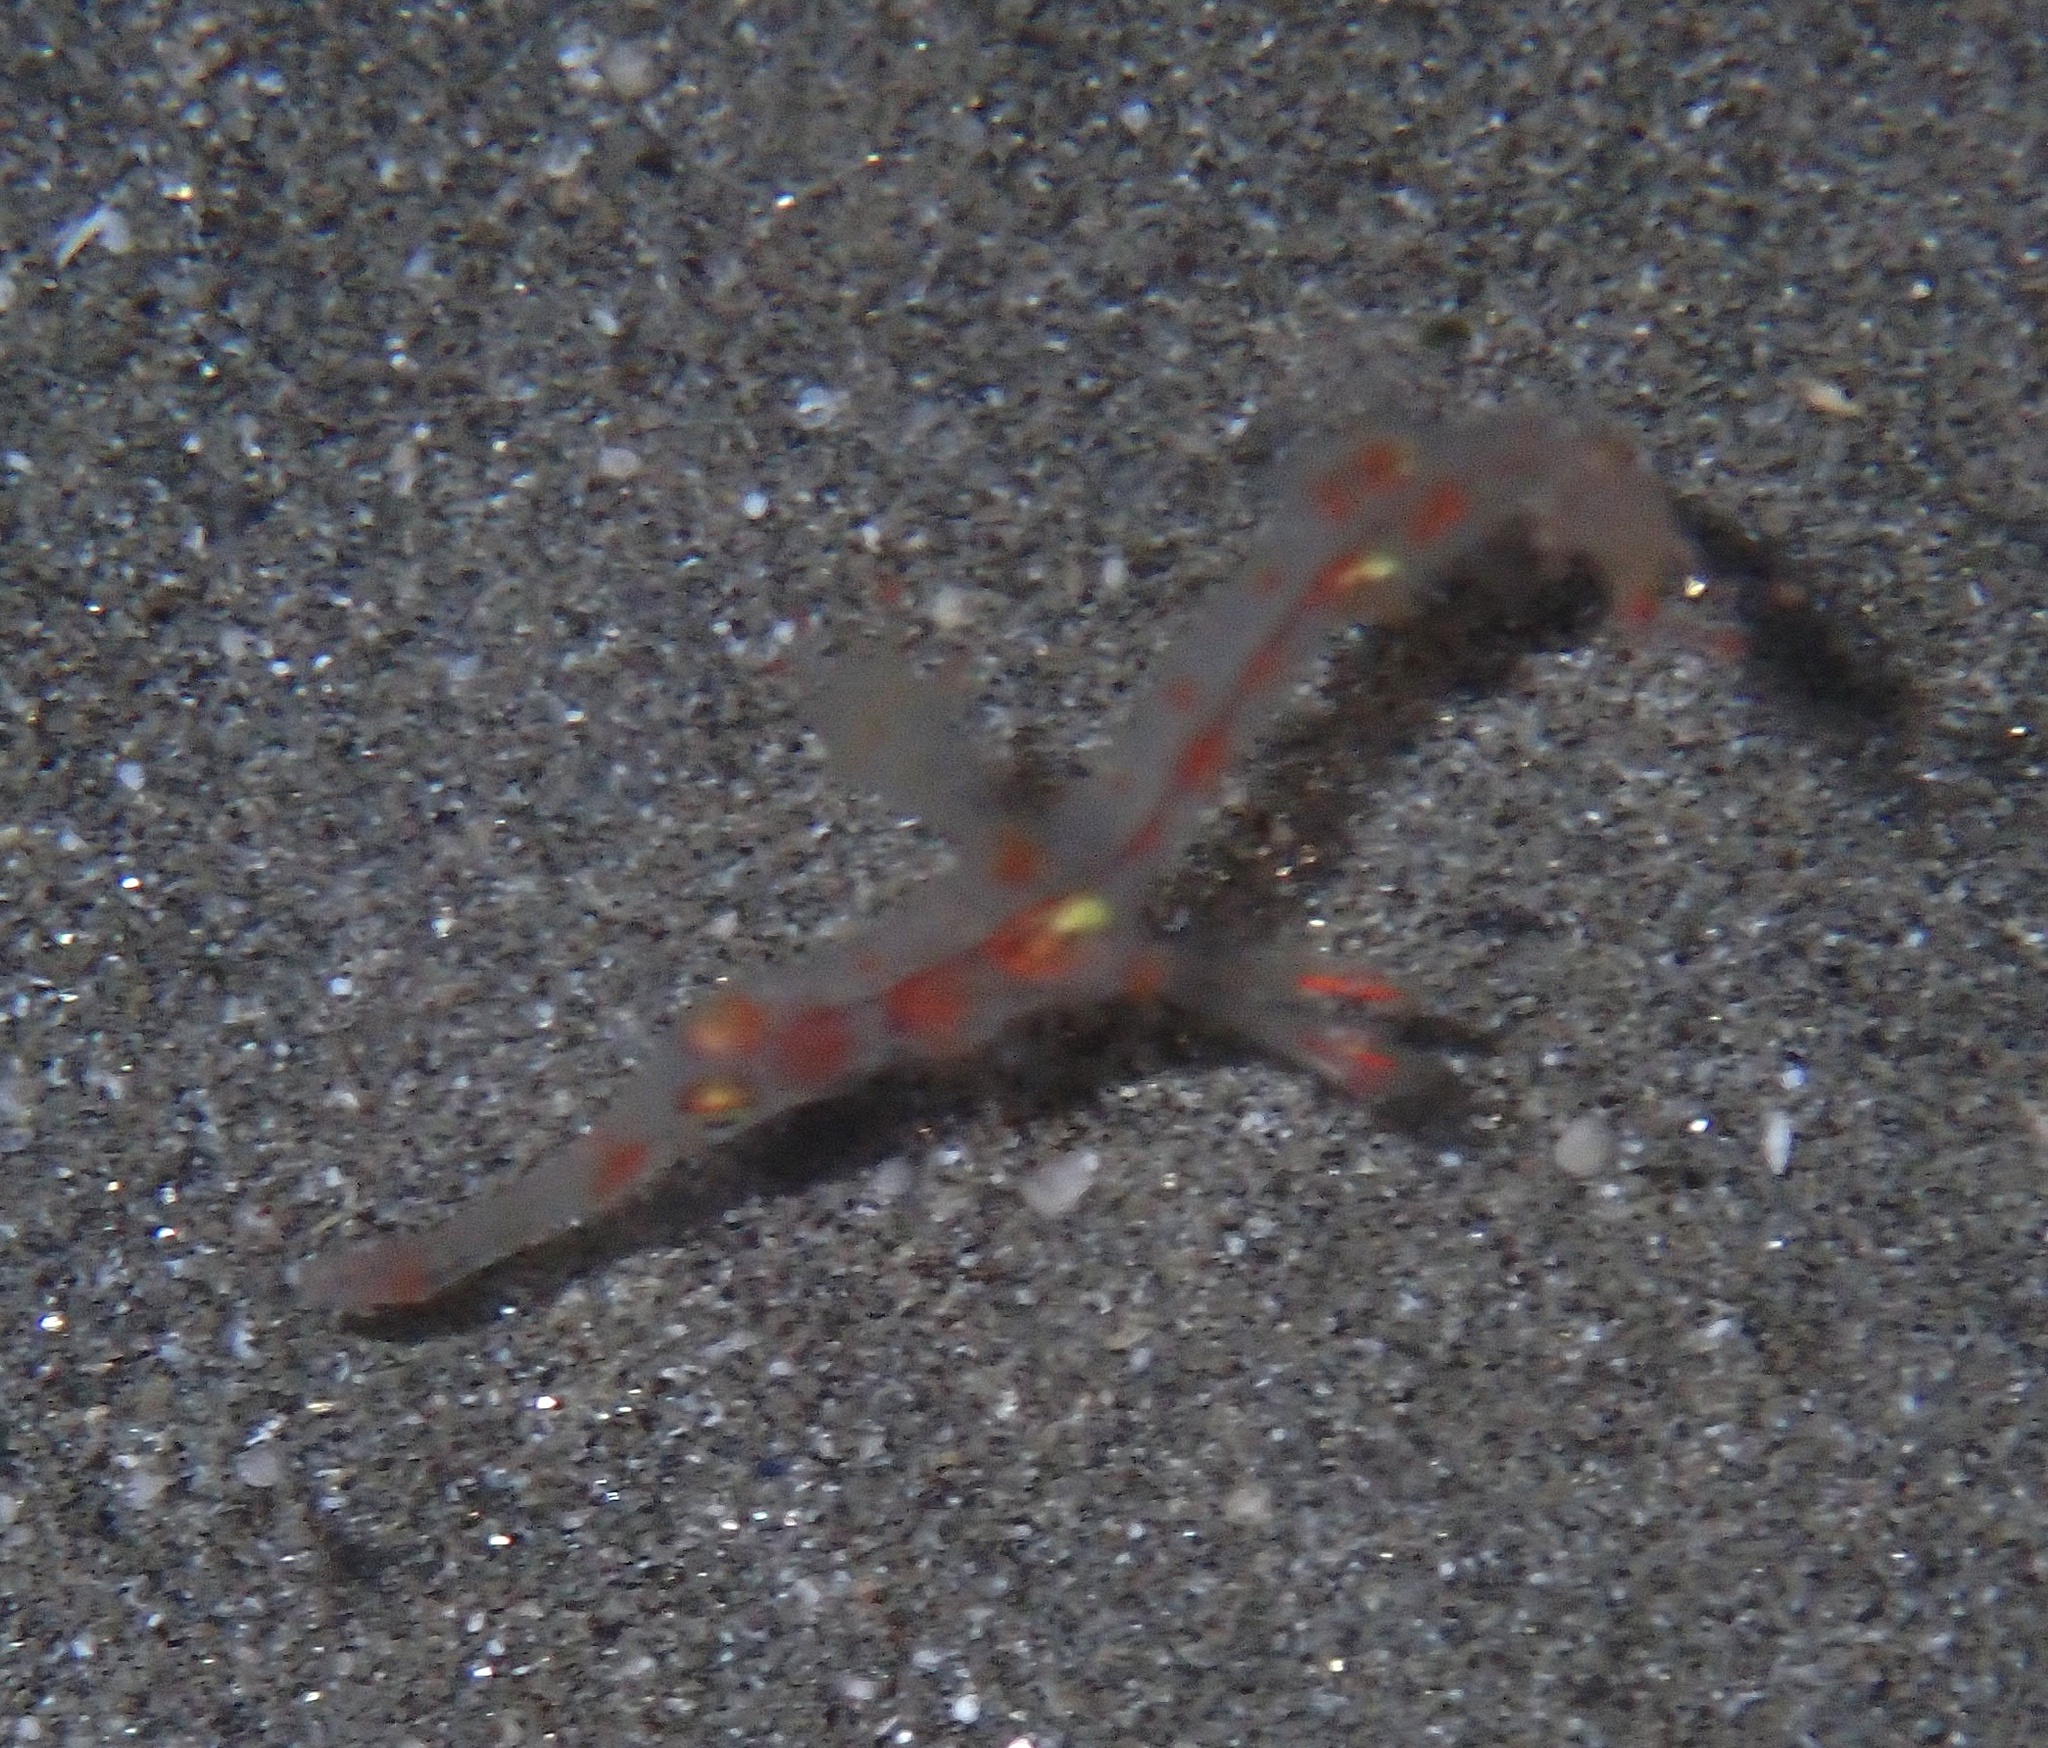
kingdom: Animalia
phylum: Chordata
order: Syngnathiformes
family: Solenostomidae
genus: Solenostomus
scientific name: Solenostomus leptosoma
